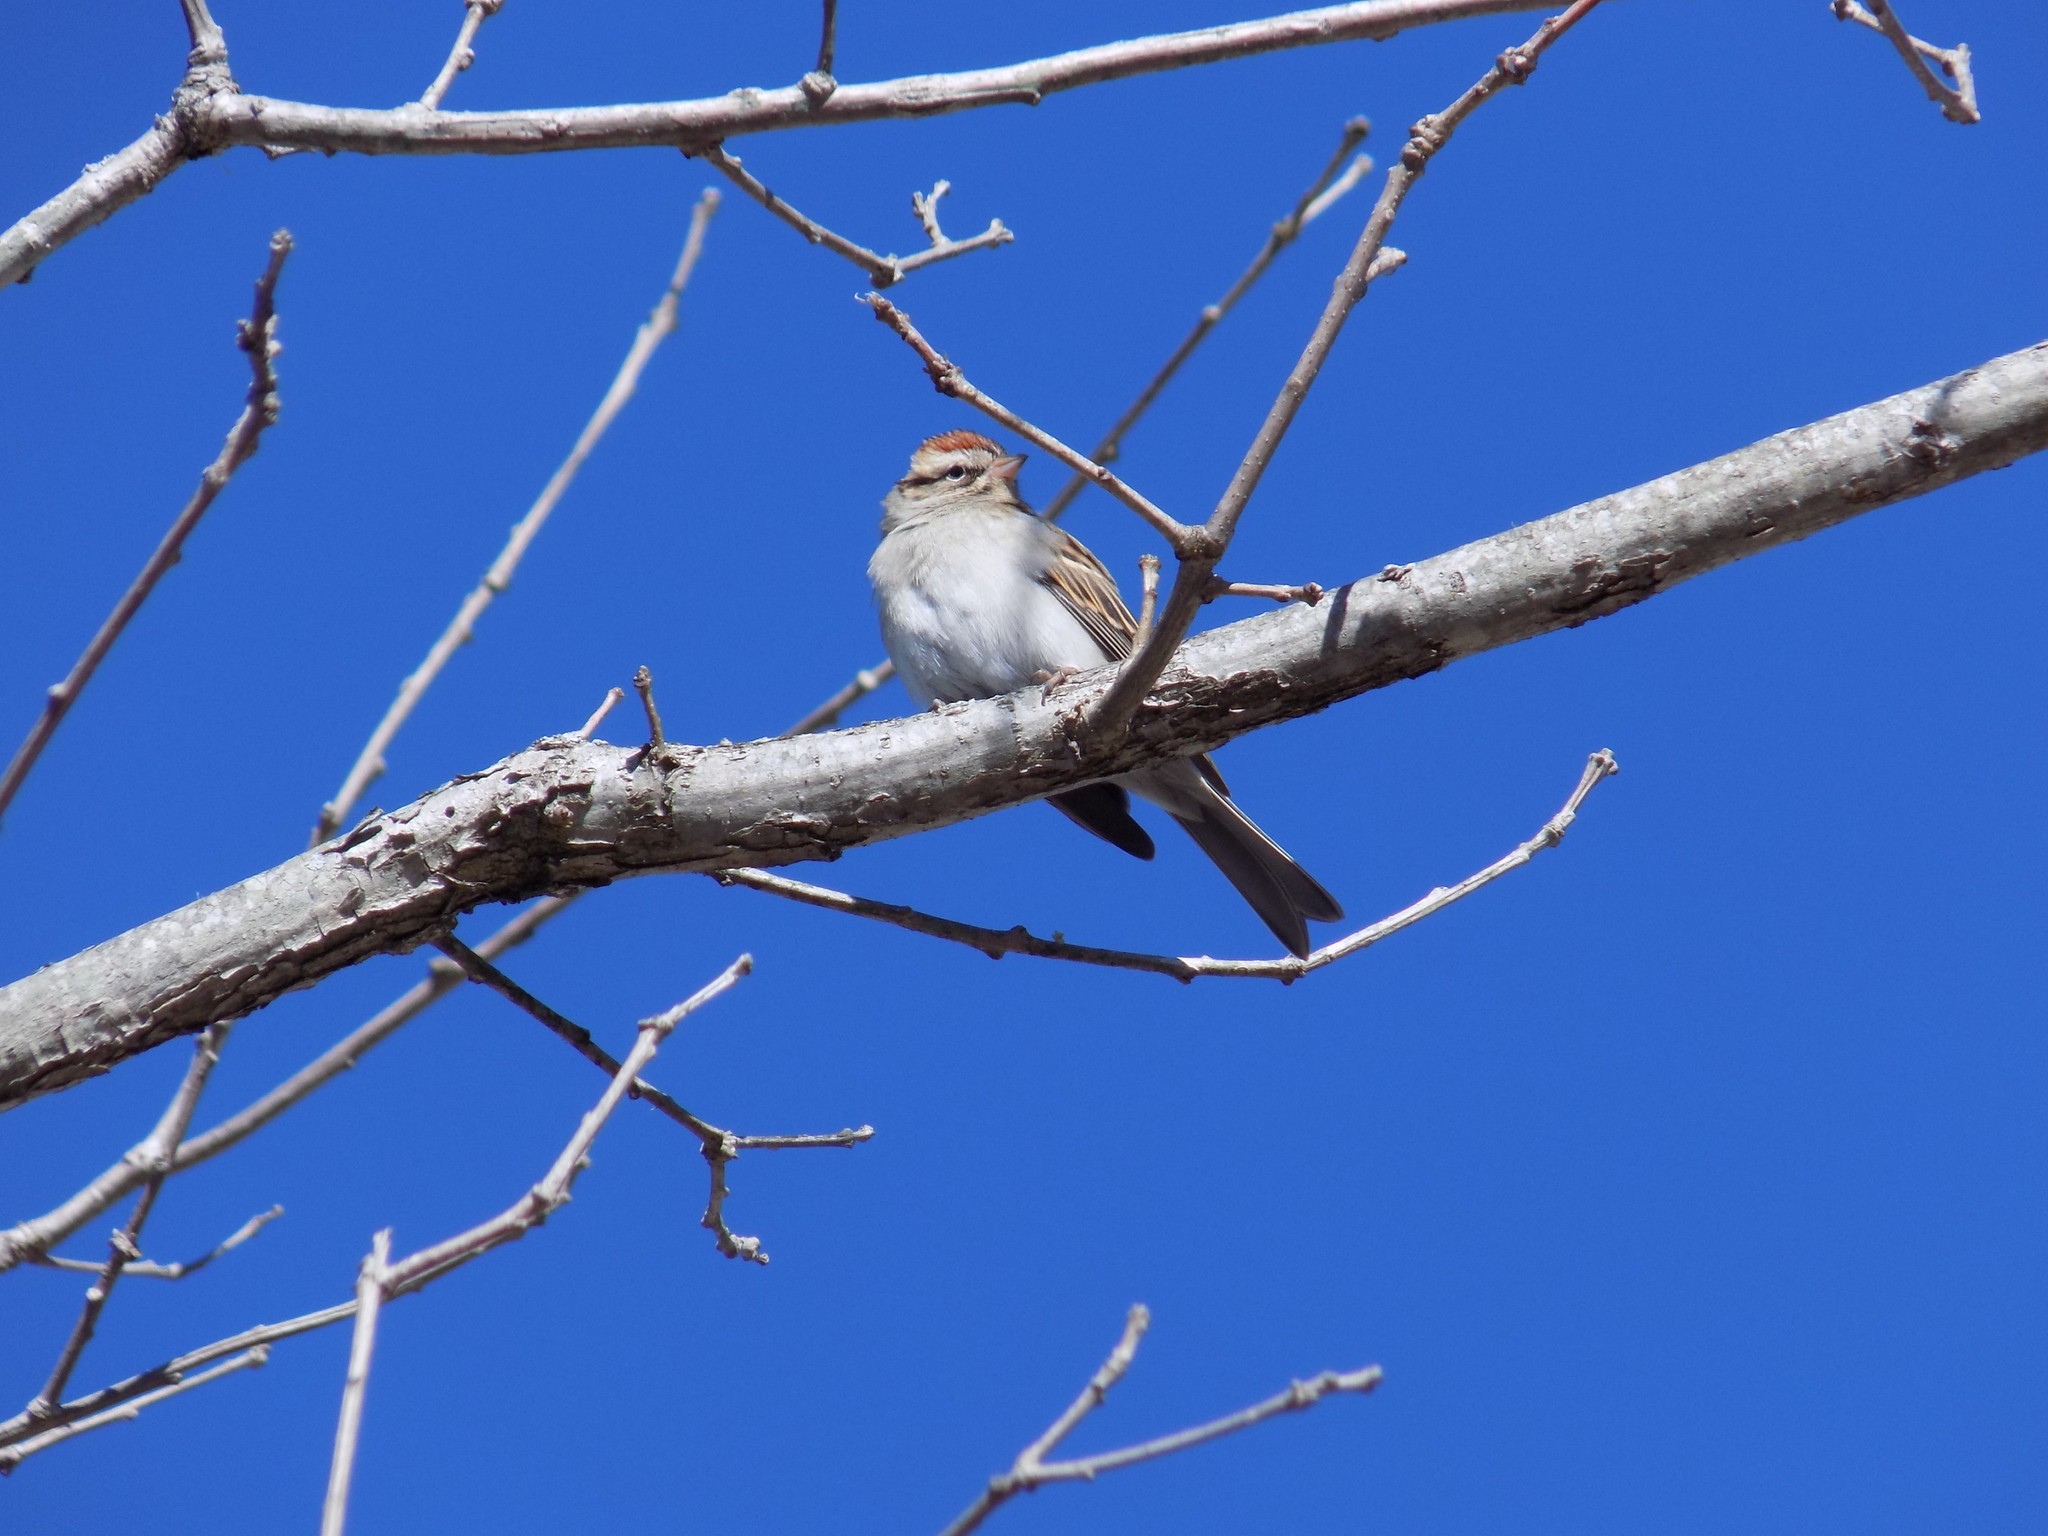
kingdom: Animalia
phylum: Chordata
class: Aves
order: Passeriformes
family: Passerellidae
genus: Spizella
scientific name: Spizella passerina
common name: Chipping sparrow
